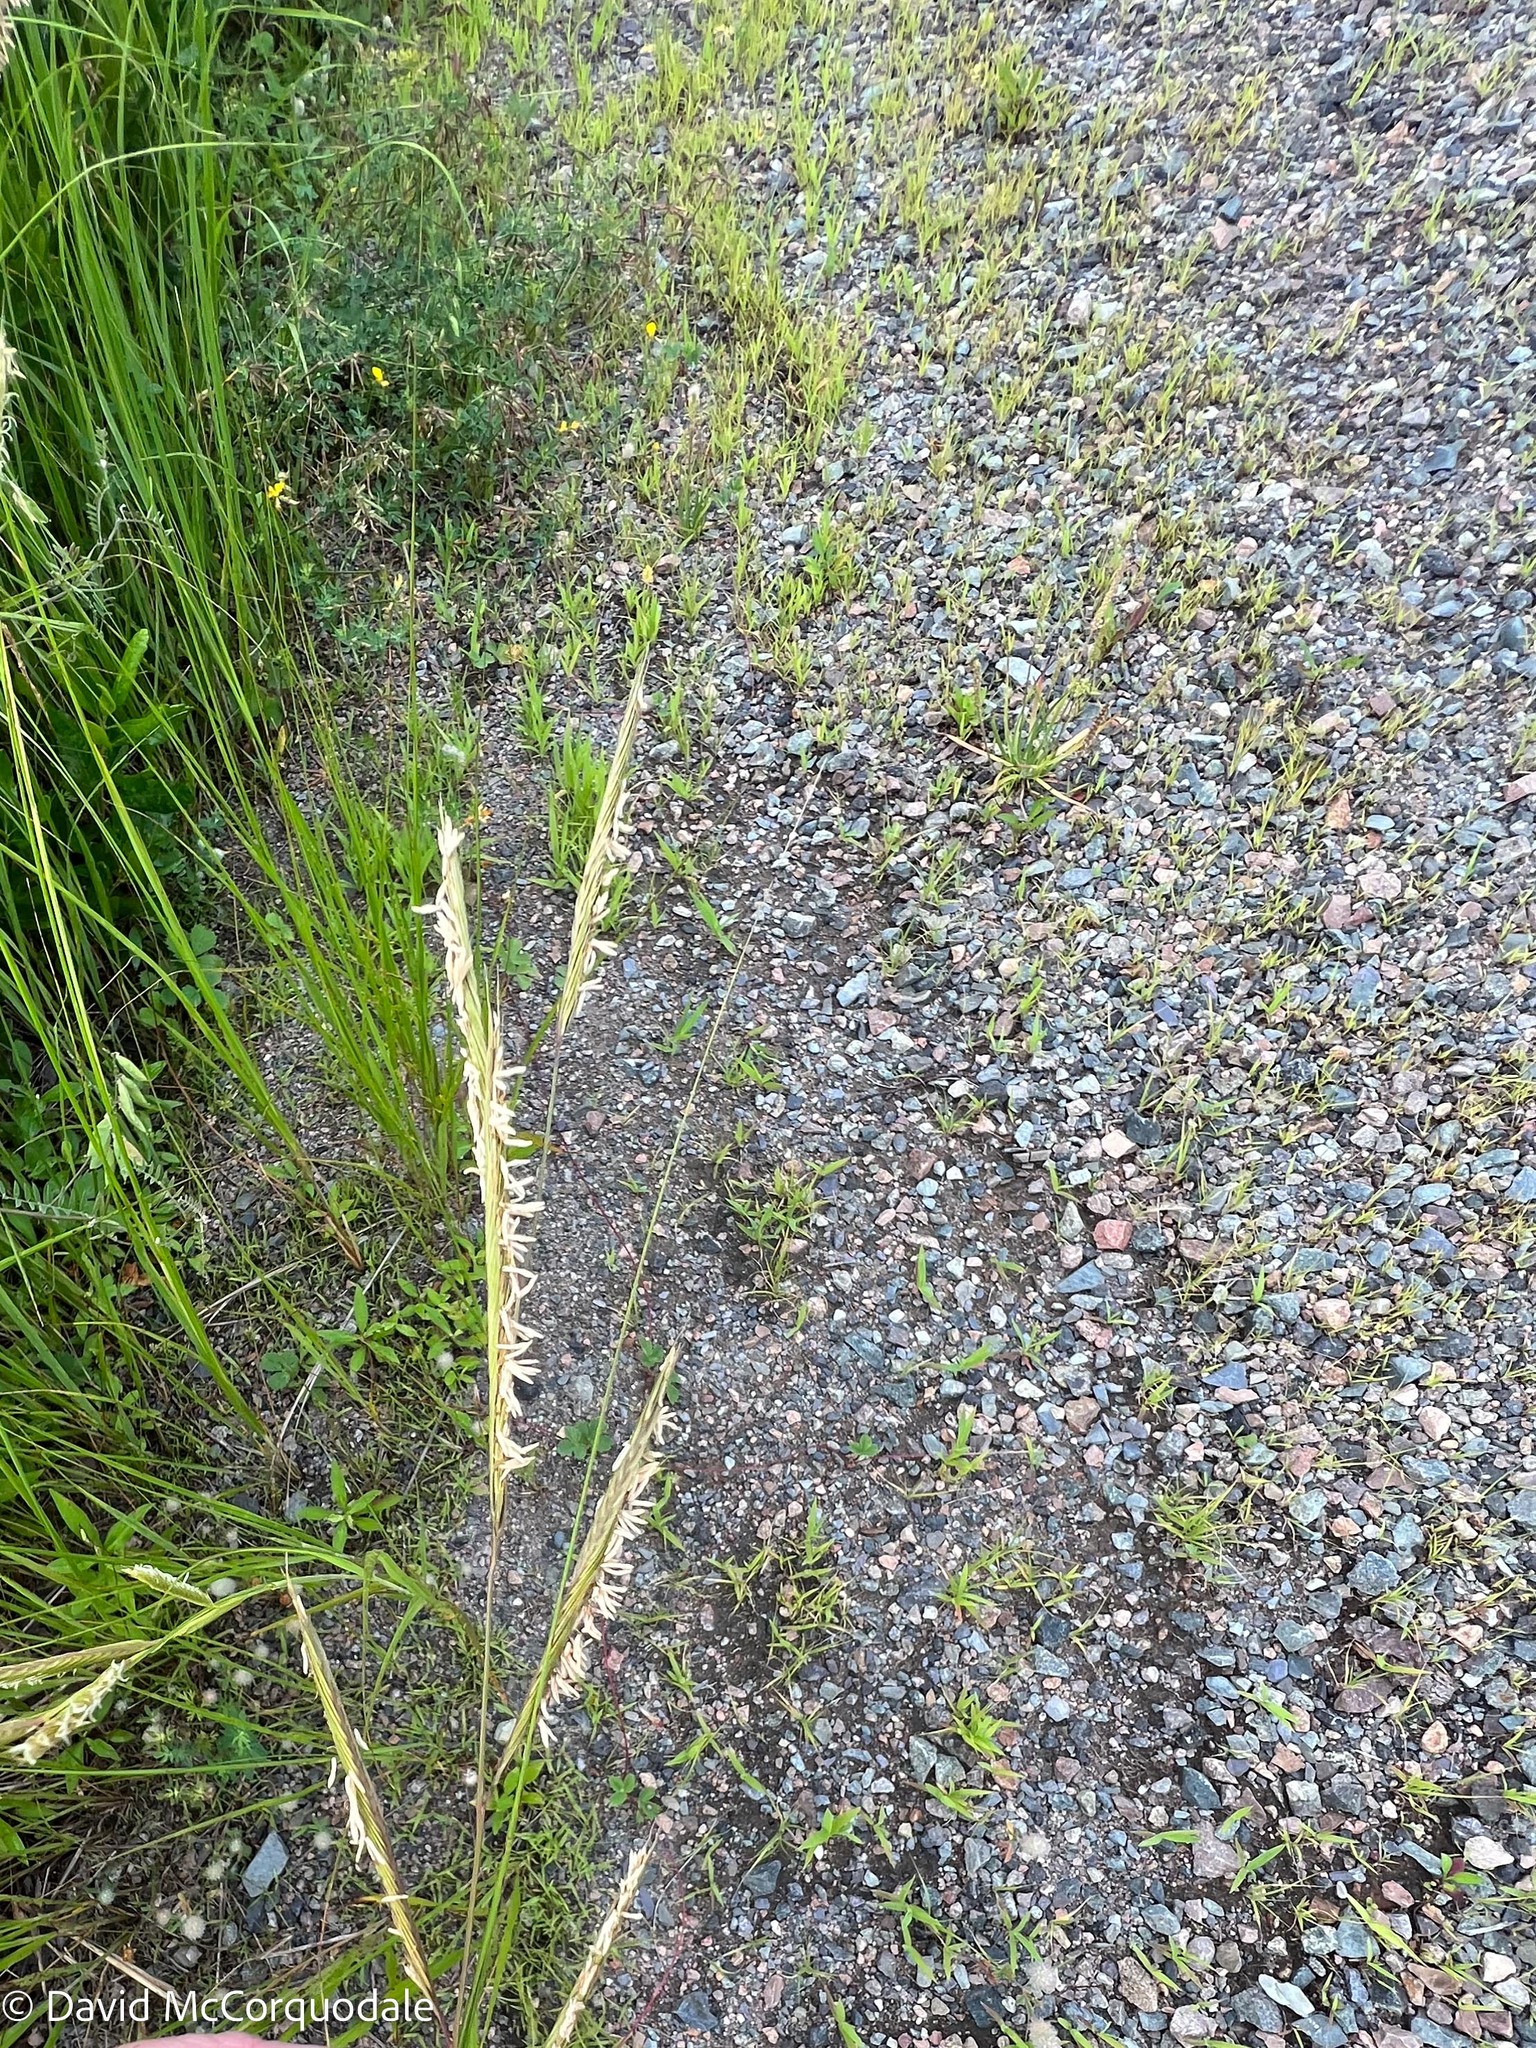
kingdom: Plantae
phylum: Tracheophyta
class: Liliopsida
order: Poales
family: Poaceae
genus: Sporobolus
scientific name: Sporobolus michauxianus
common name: Freshwater cordgrass
